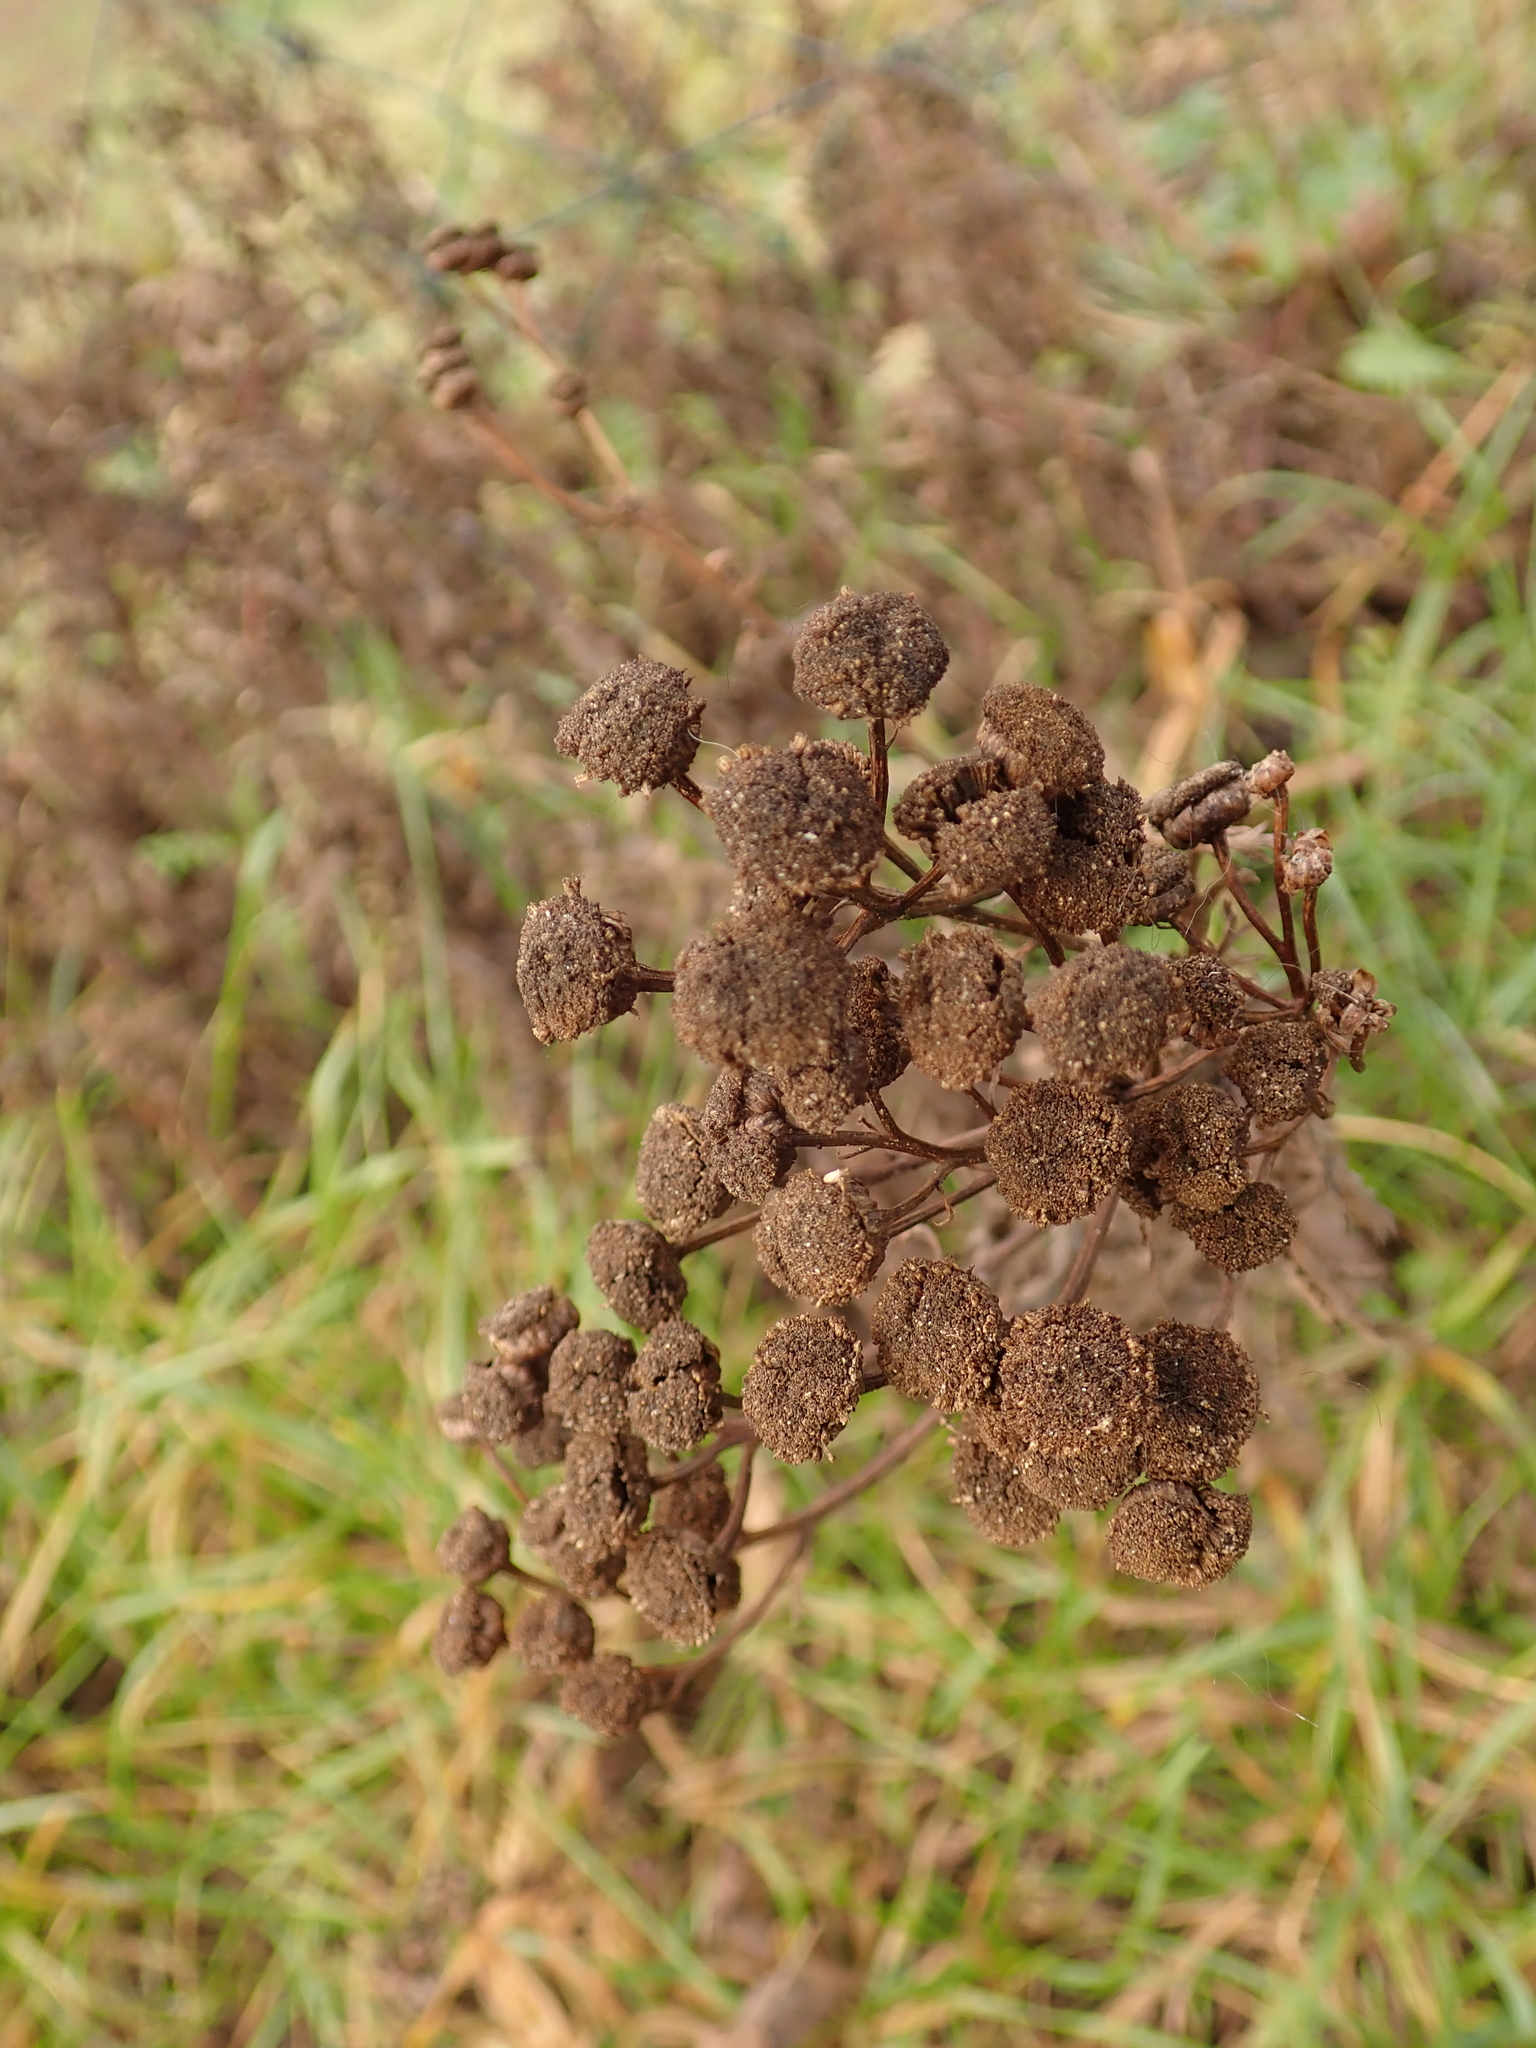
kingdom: Plantae
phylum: Tracheophyta
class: Magnoliopsida
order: Asterales
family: Asteraceae
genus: Tanacetum
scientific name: Tanacetum vulgare
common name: Common tansy
